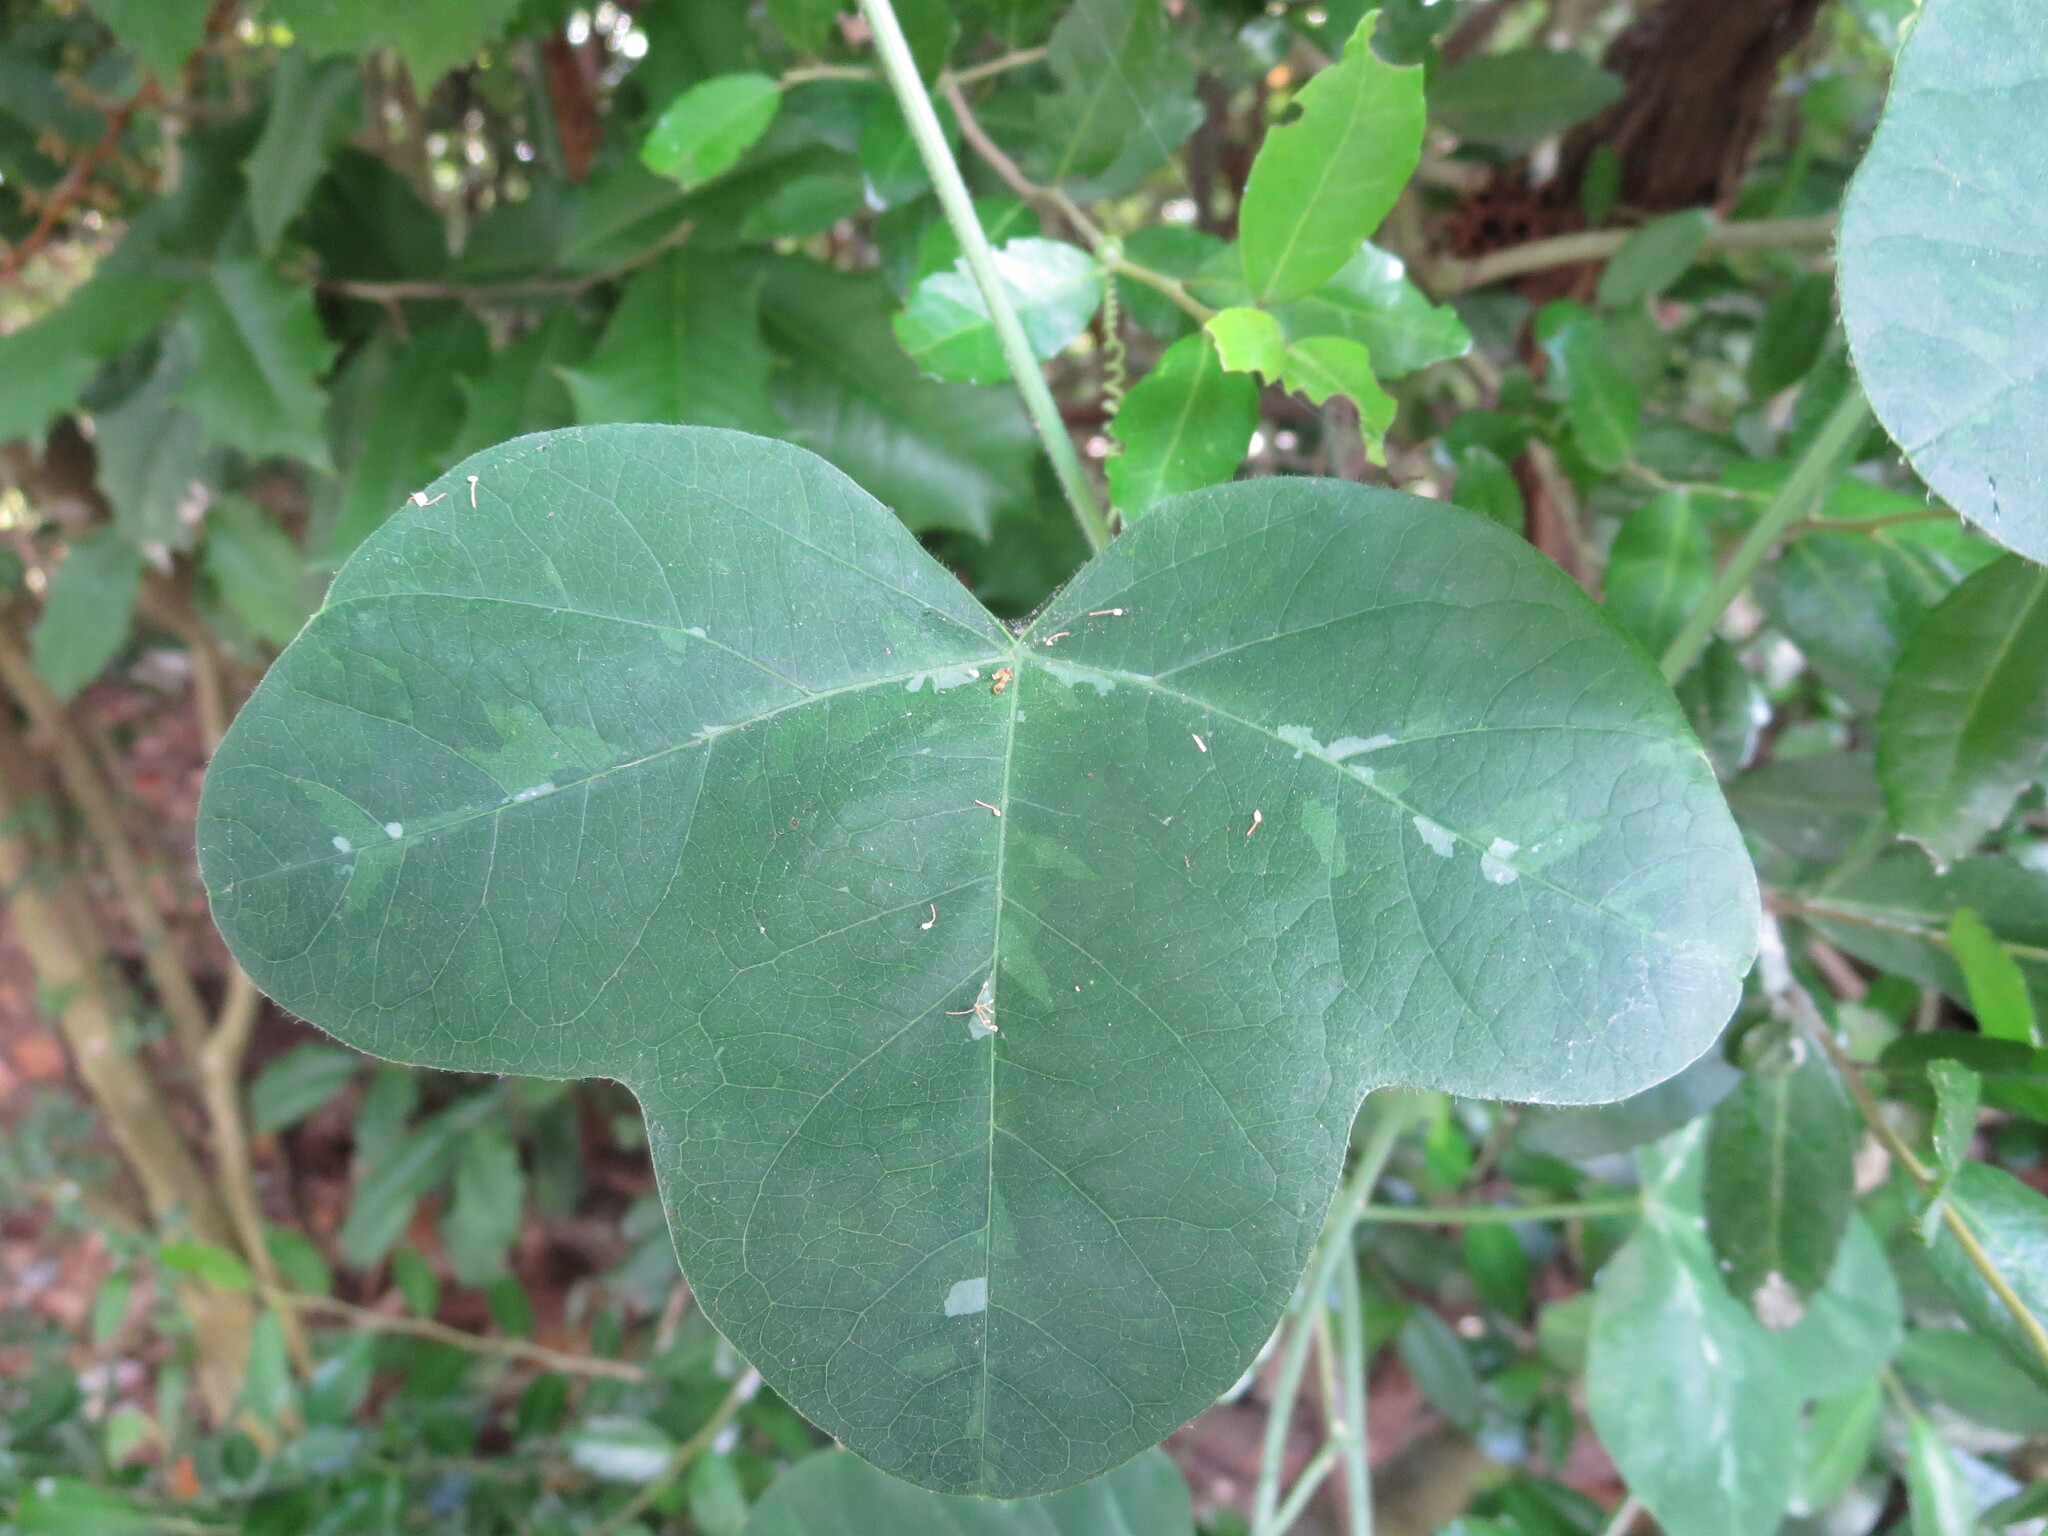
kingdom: Plantae
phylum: Tracheophyta
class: Magnoliopsida
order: Malpighiales
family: Passifloraceae
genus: Passiflora
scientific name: Passiflora lutea
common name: Yellow passionflower
